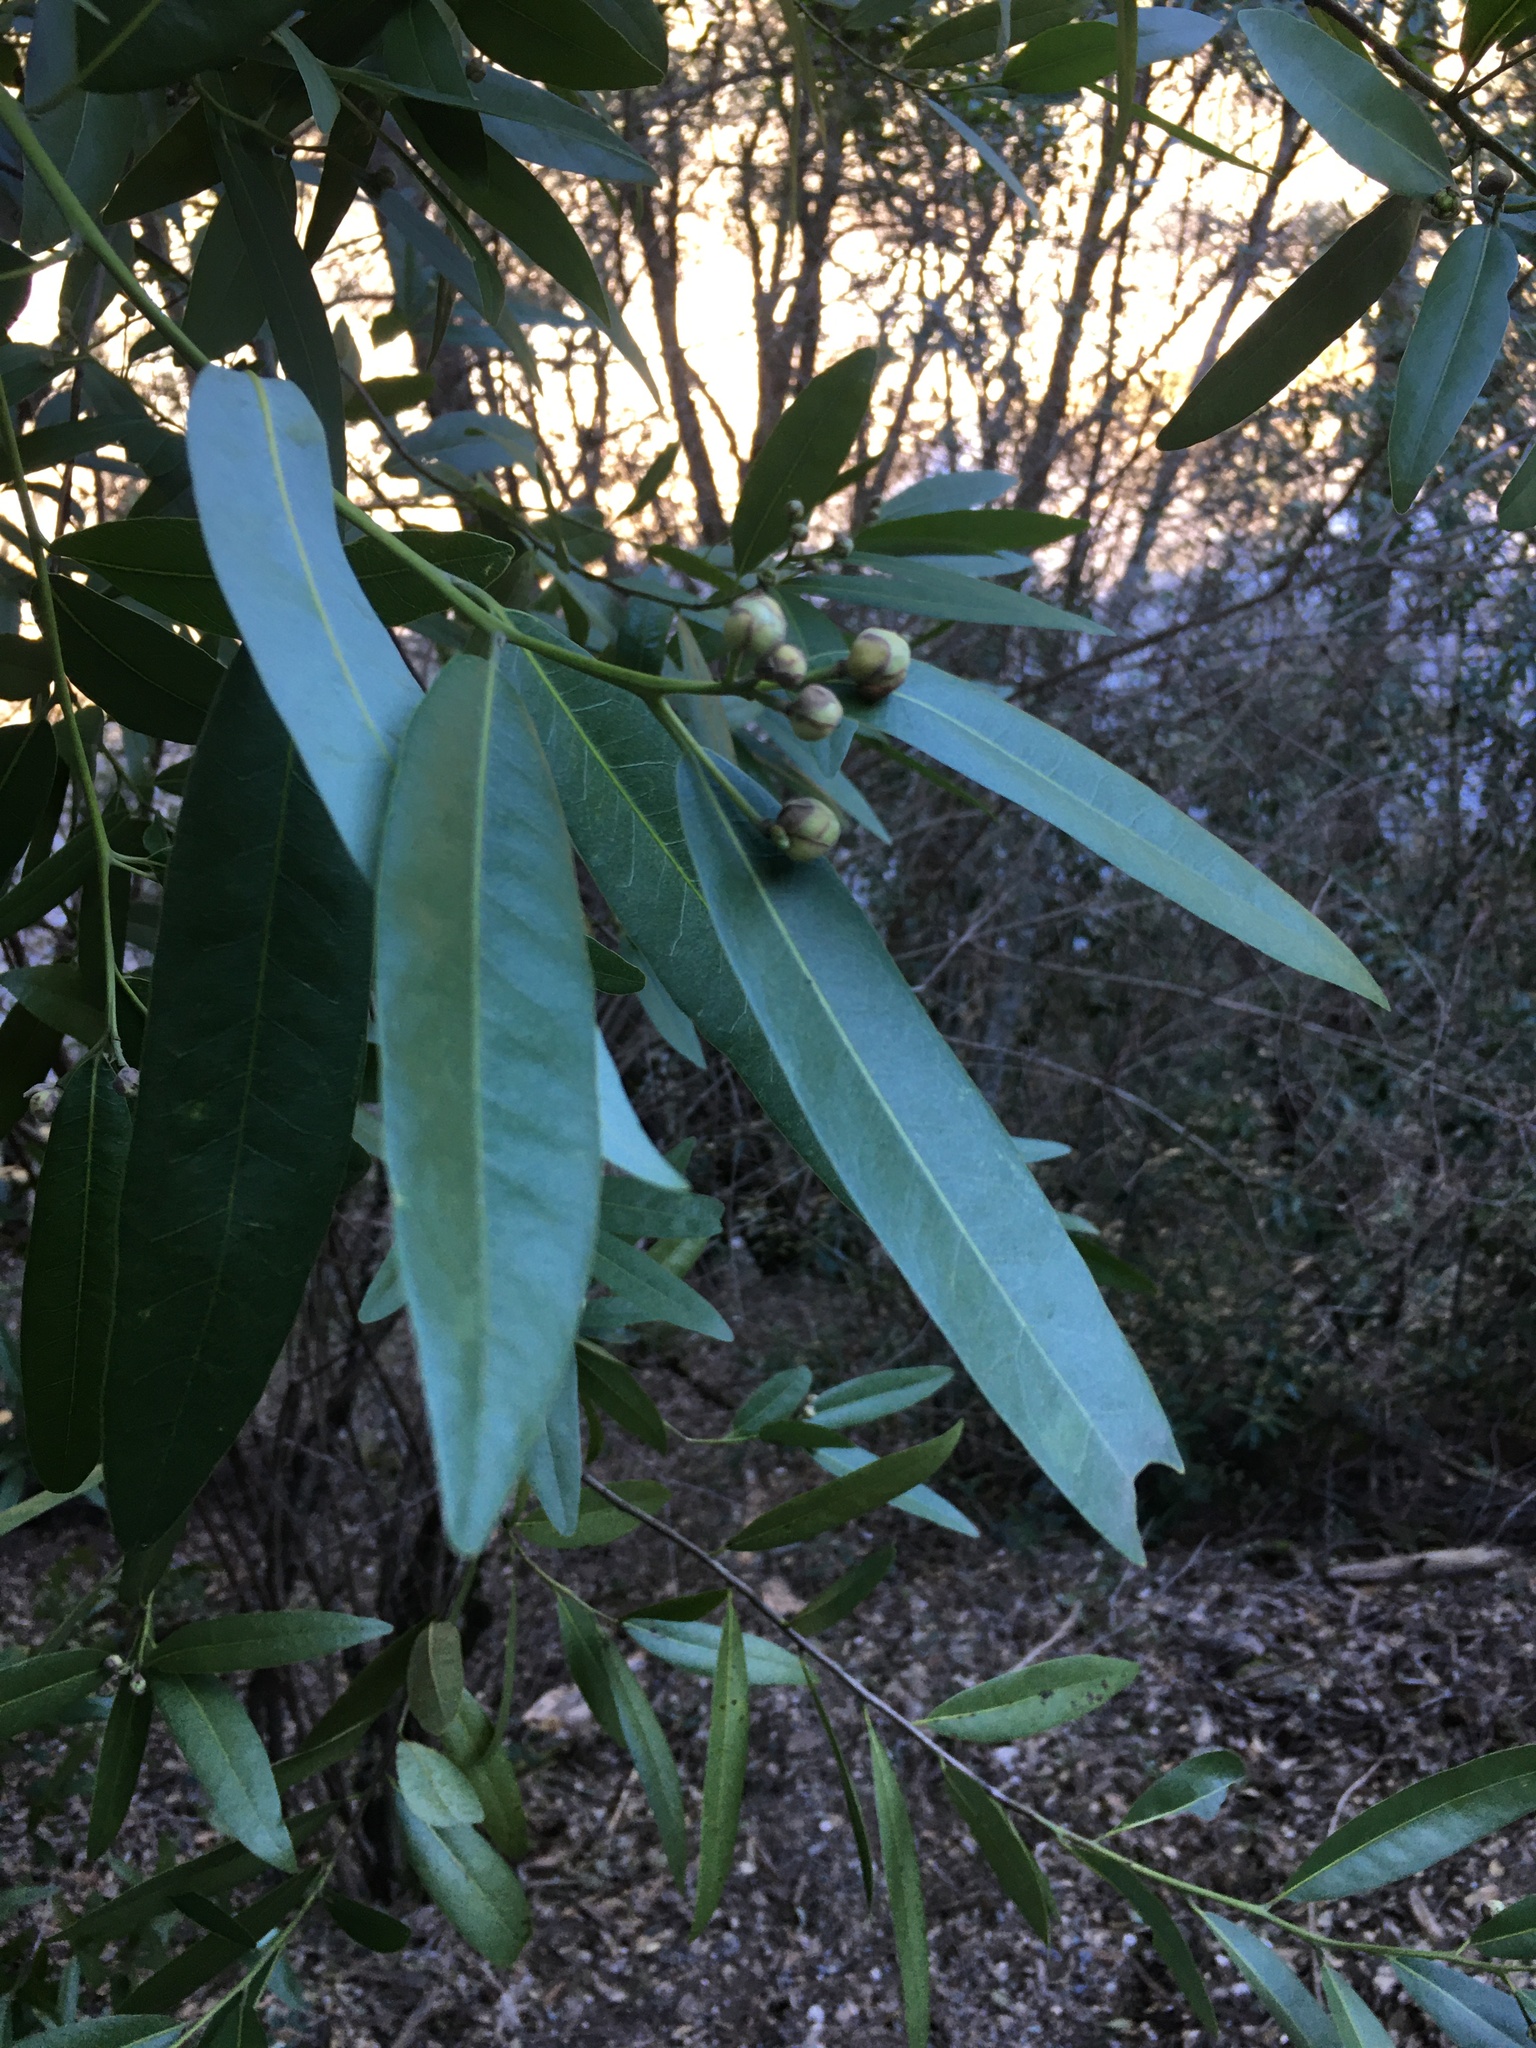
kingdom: Plantae
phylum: Tracheophyta
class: Magnoliopsida
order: Laurales
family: Lauraceae
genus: Umbellularia
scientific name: Umbellularia californica
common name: California bay
